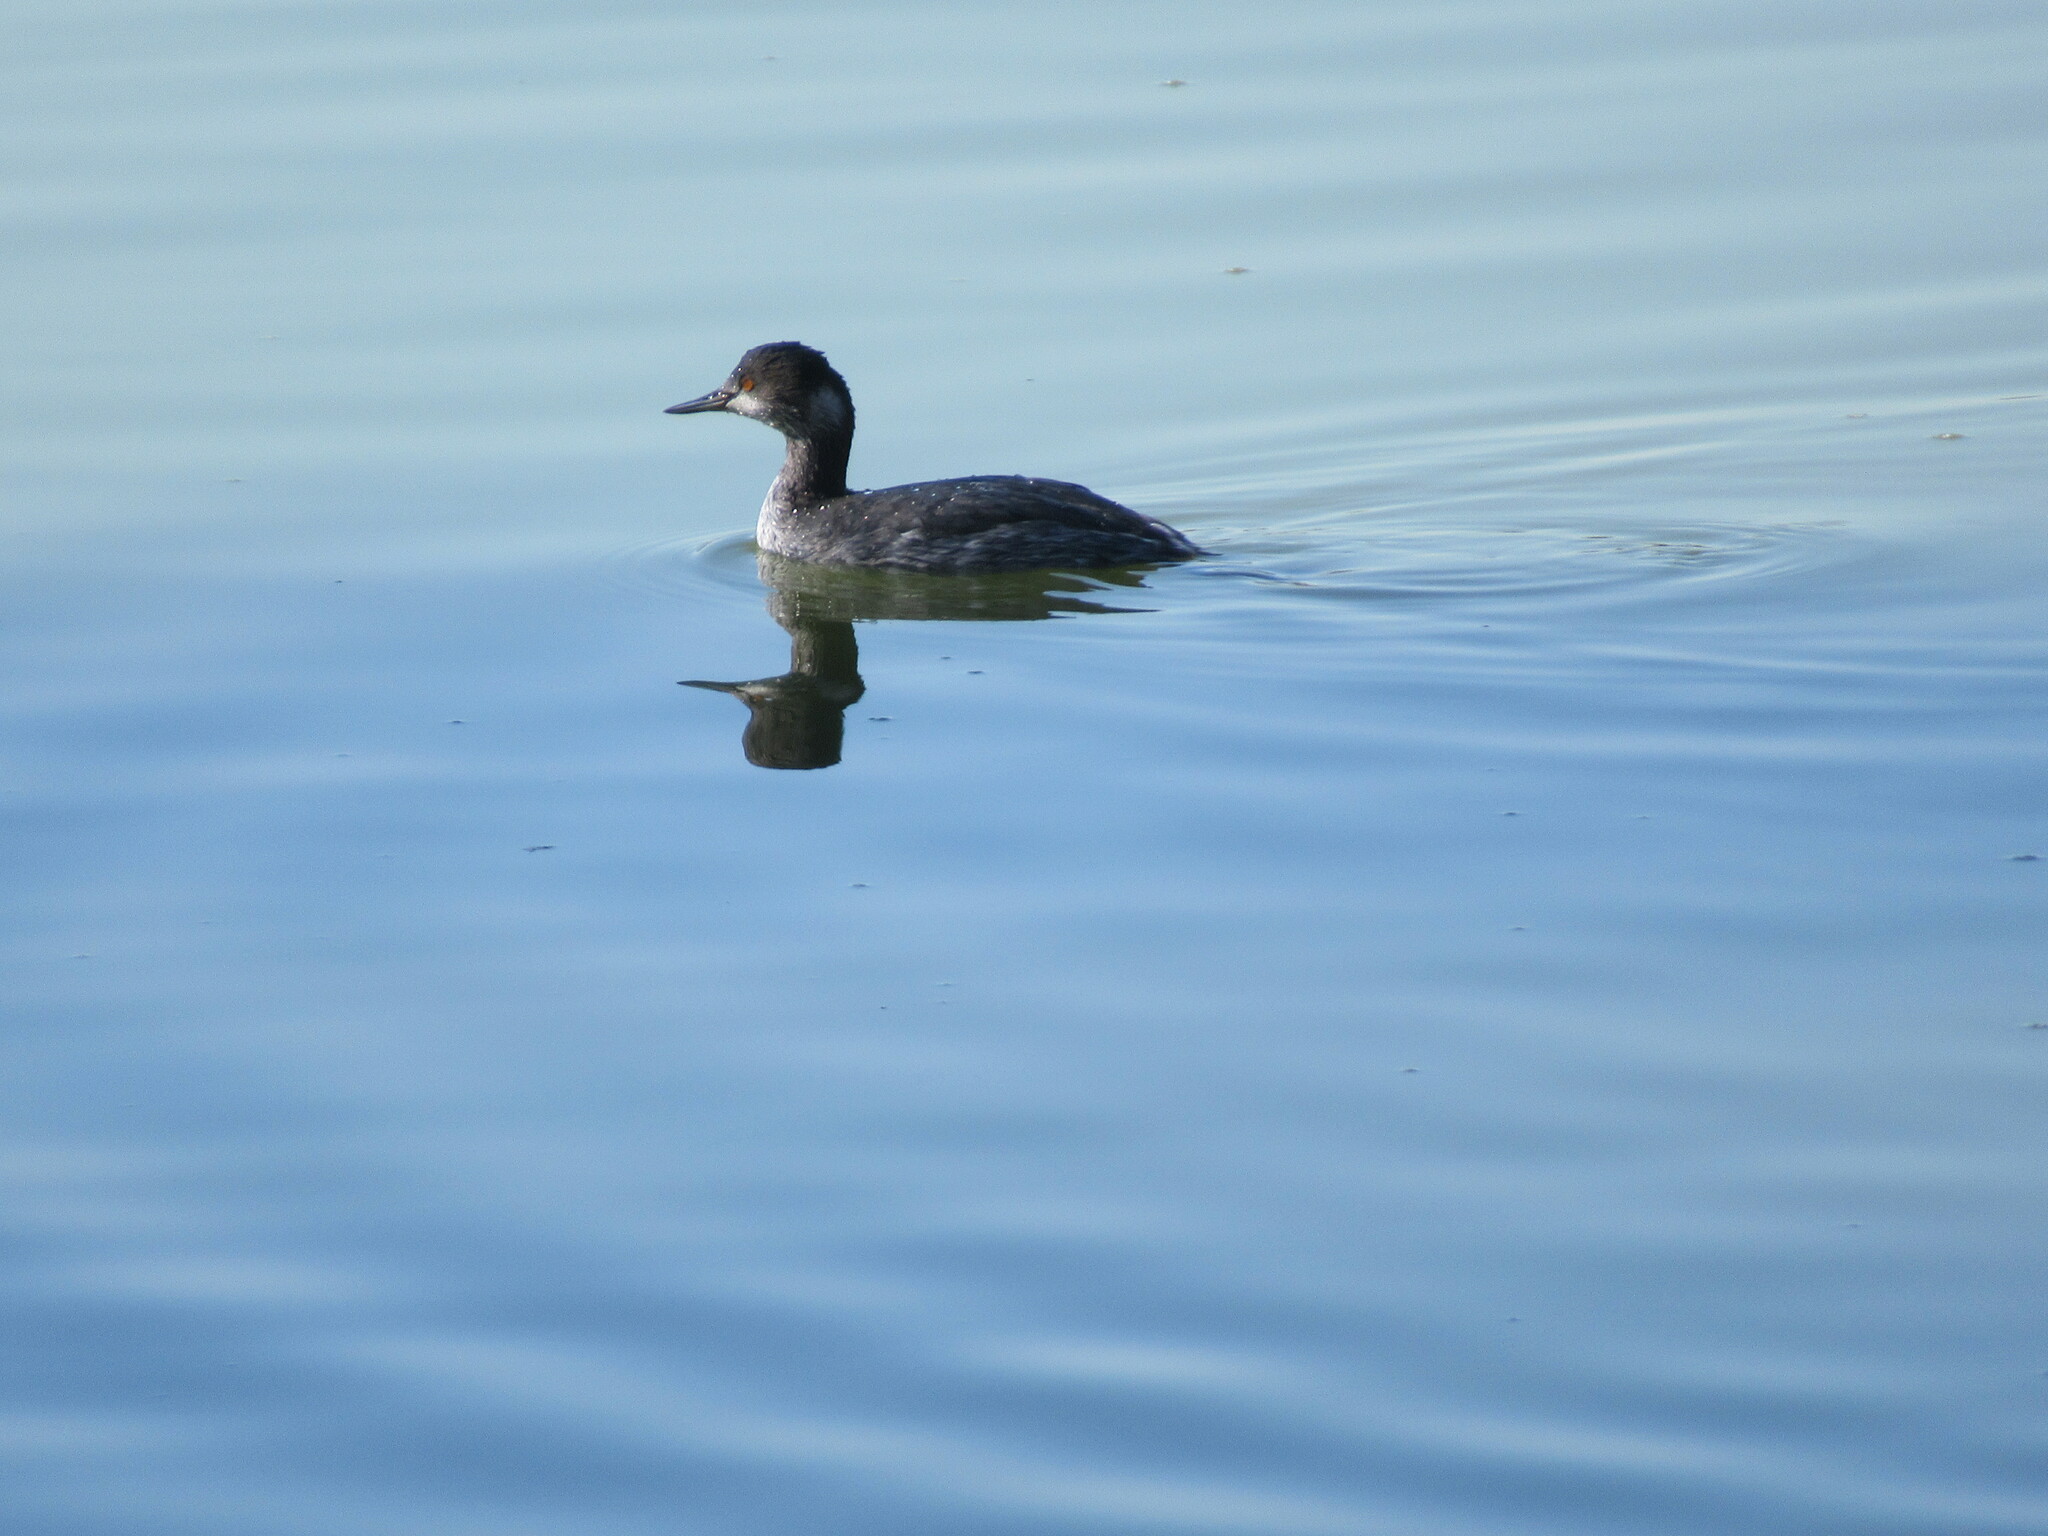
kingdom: Animalia
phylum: Chordata
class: Aves
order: Podicipediformes
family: Podicipedidae
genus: Podiceps
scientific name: Podiceps nigricollis
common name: Black-necked grebe
